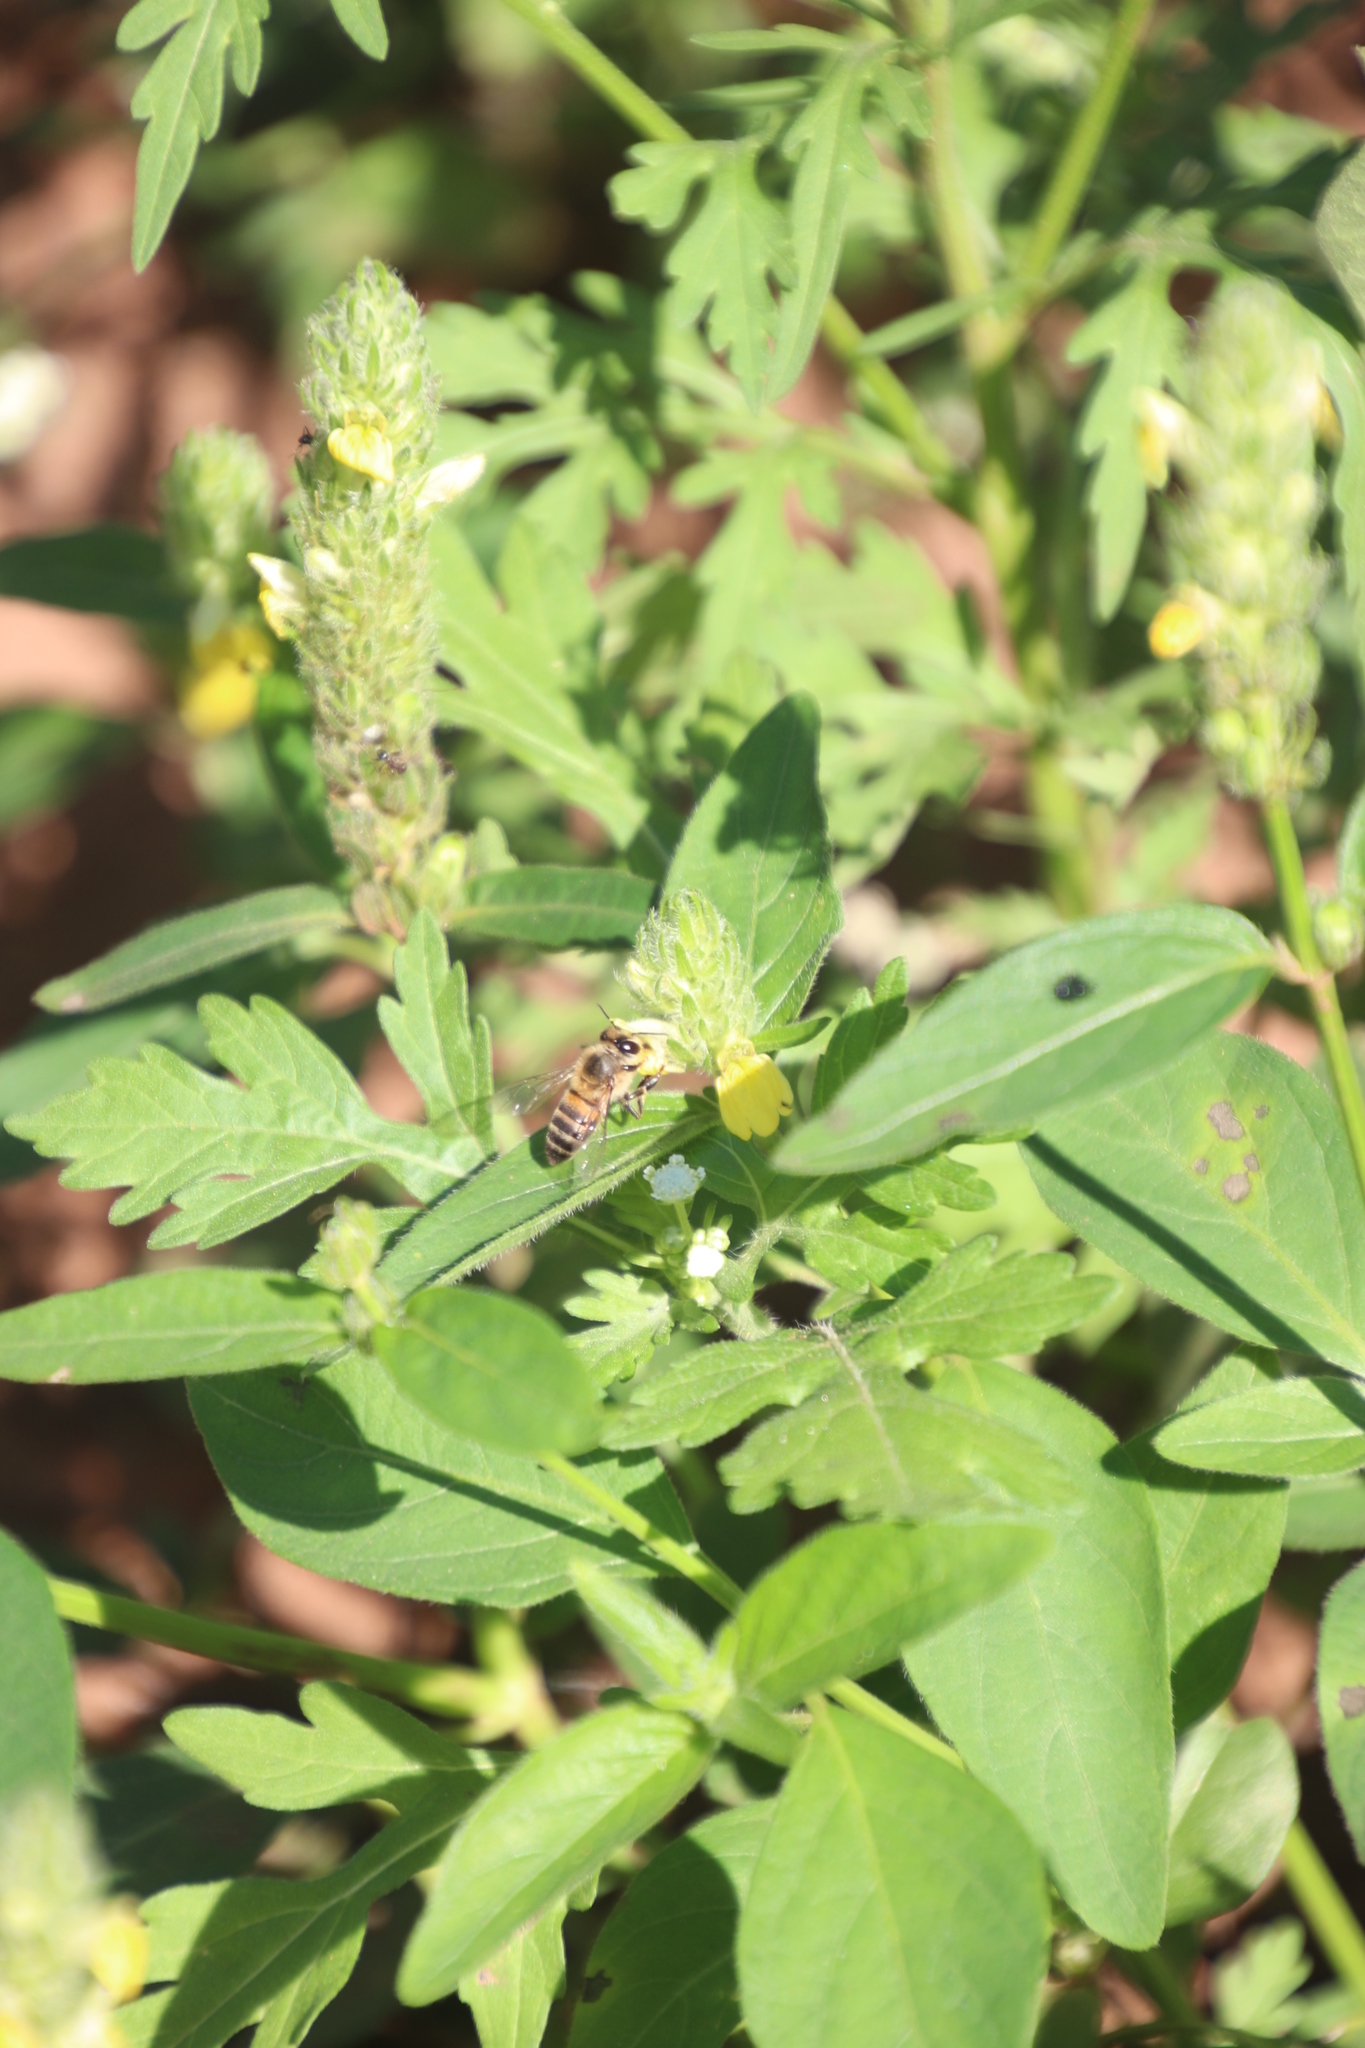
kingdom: Plantae
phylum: Tracheophyta
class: Magnoliopsida
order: Lamiales
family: Acanthaceae
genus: Justicia
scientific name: Justicia flava
